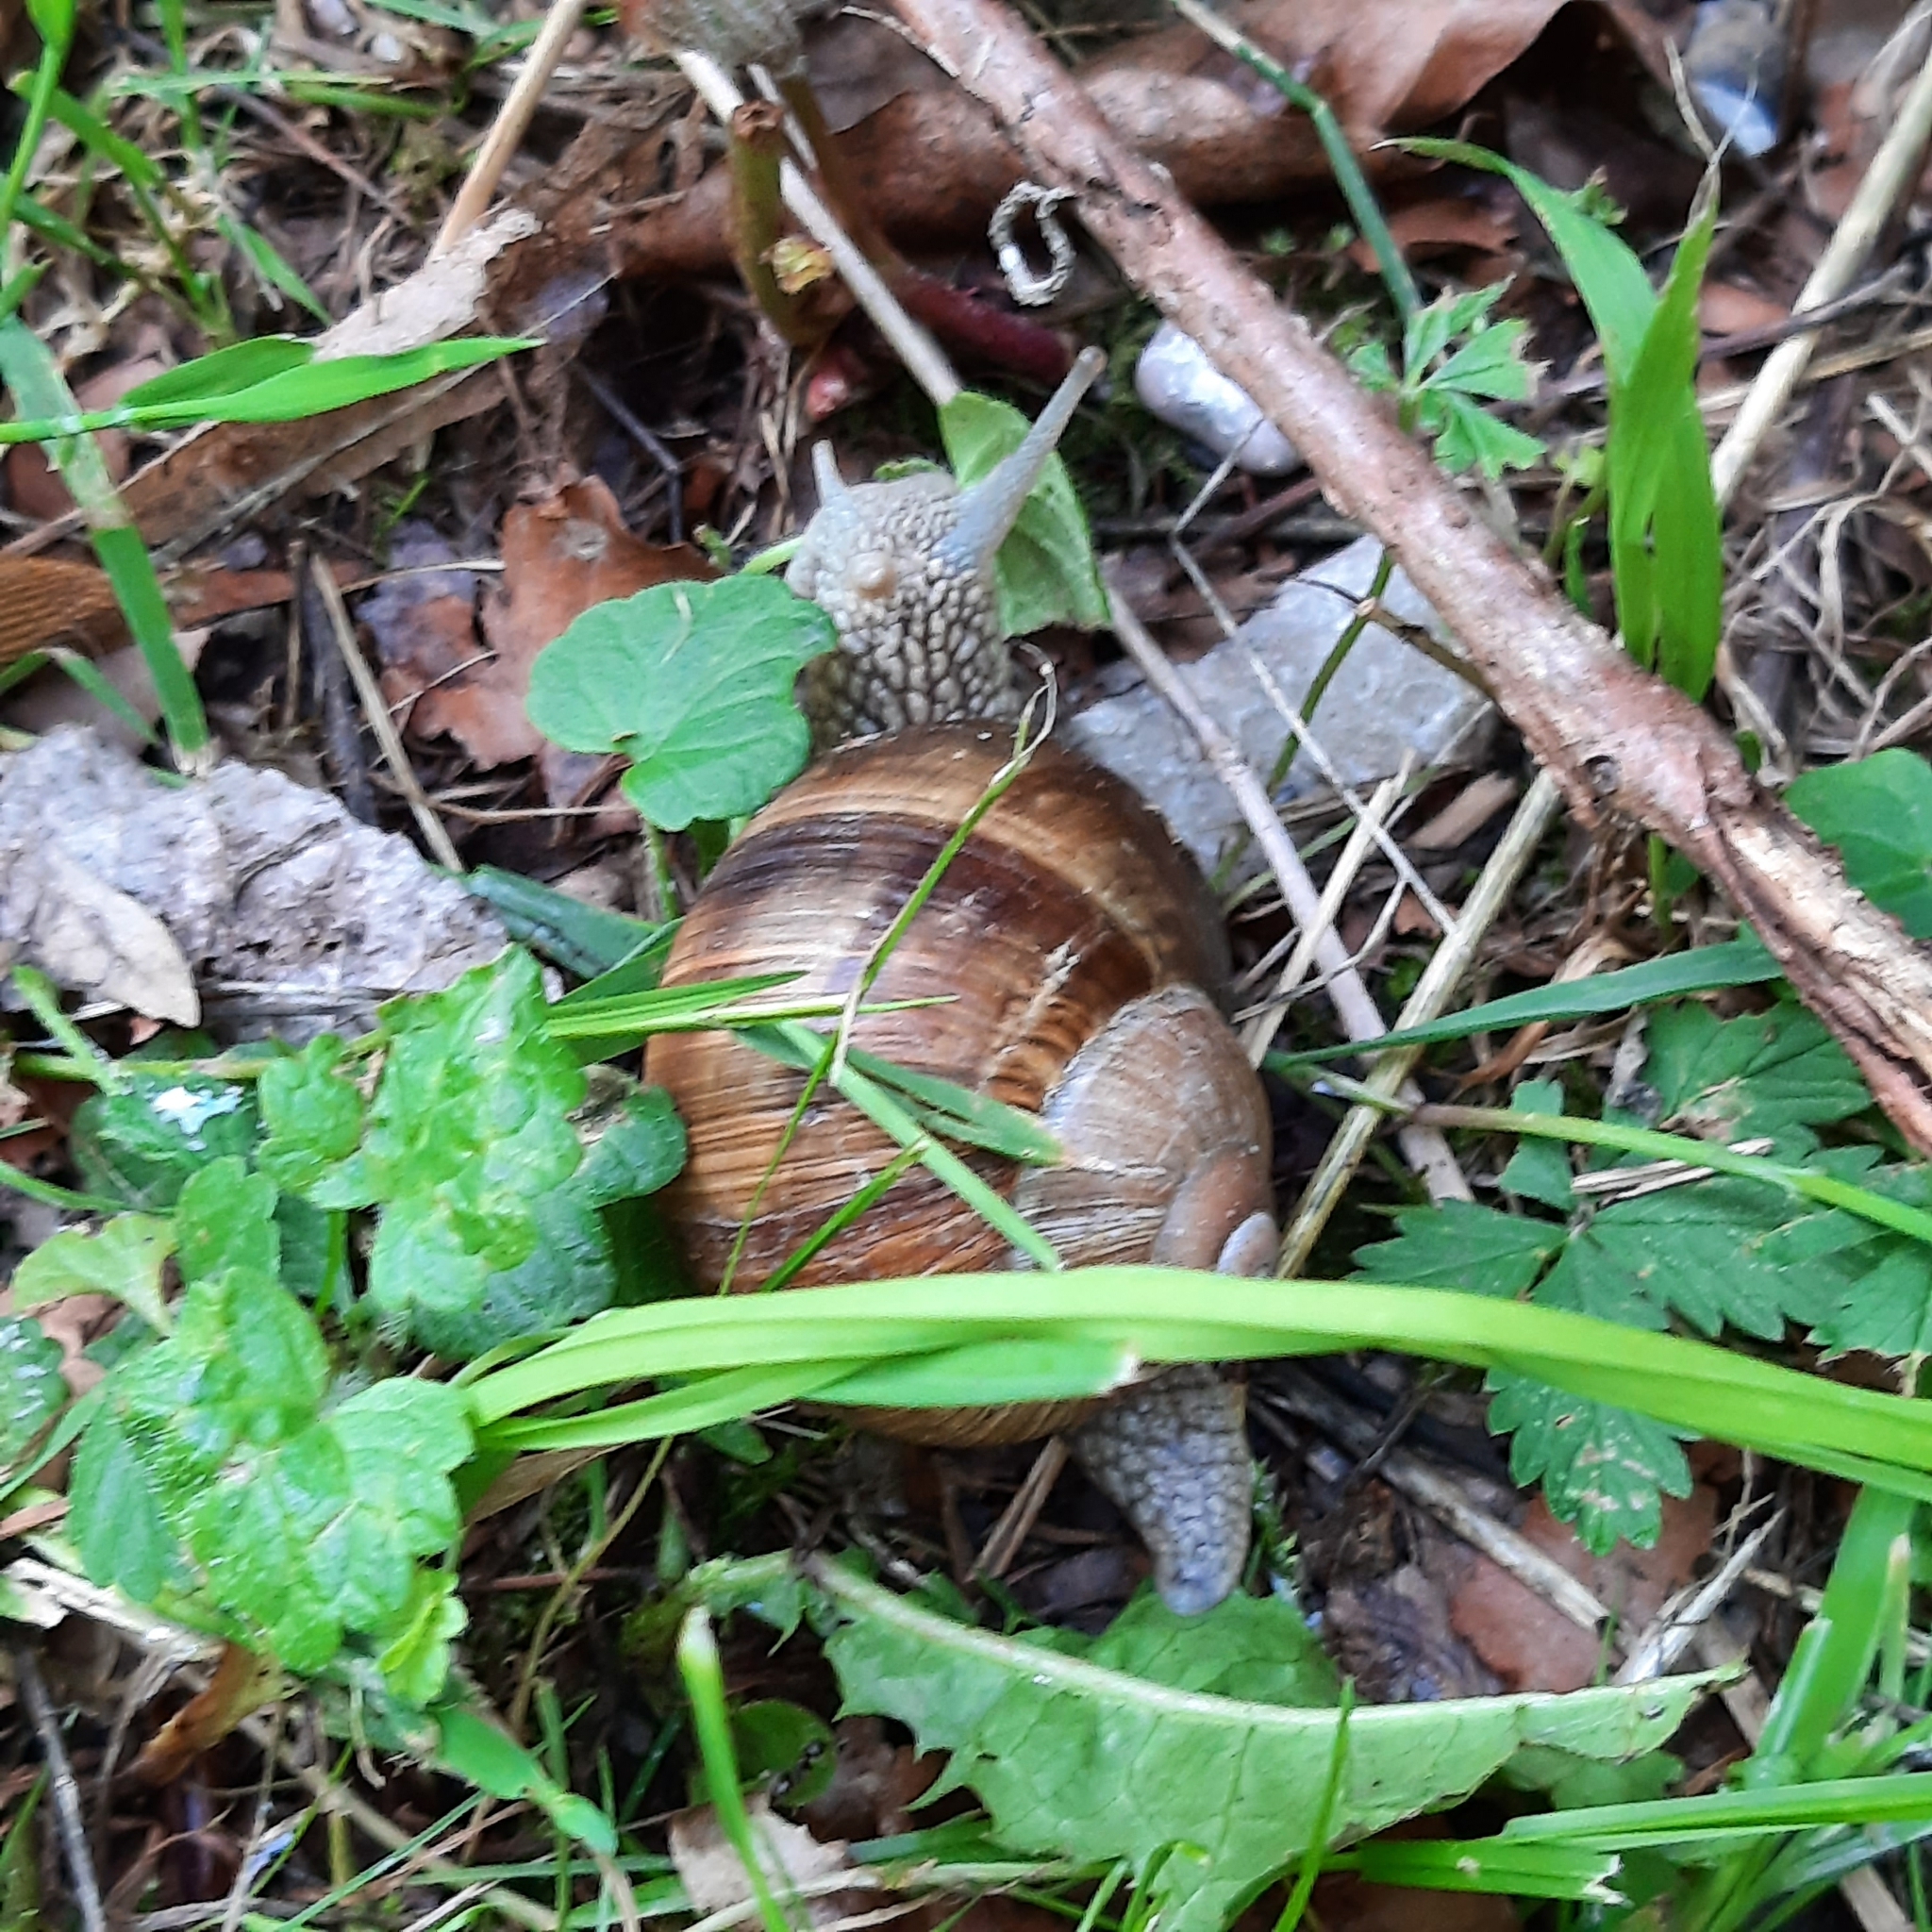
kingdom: Animalia
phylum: Mollusca
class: Gastropoda
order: Stylommatophora
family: Helicidae
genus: Helix
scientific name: Helix pomatia
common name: Roman snail
